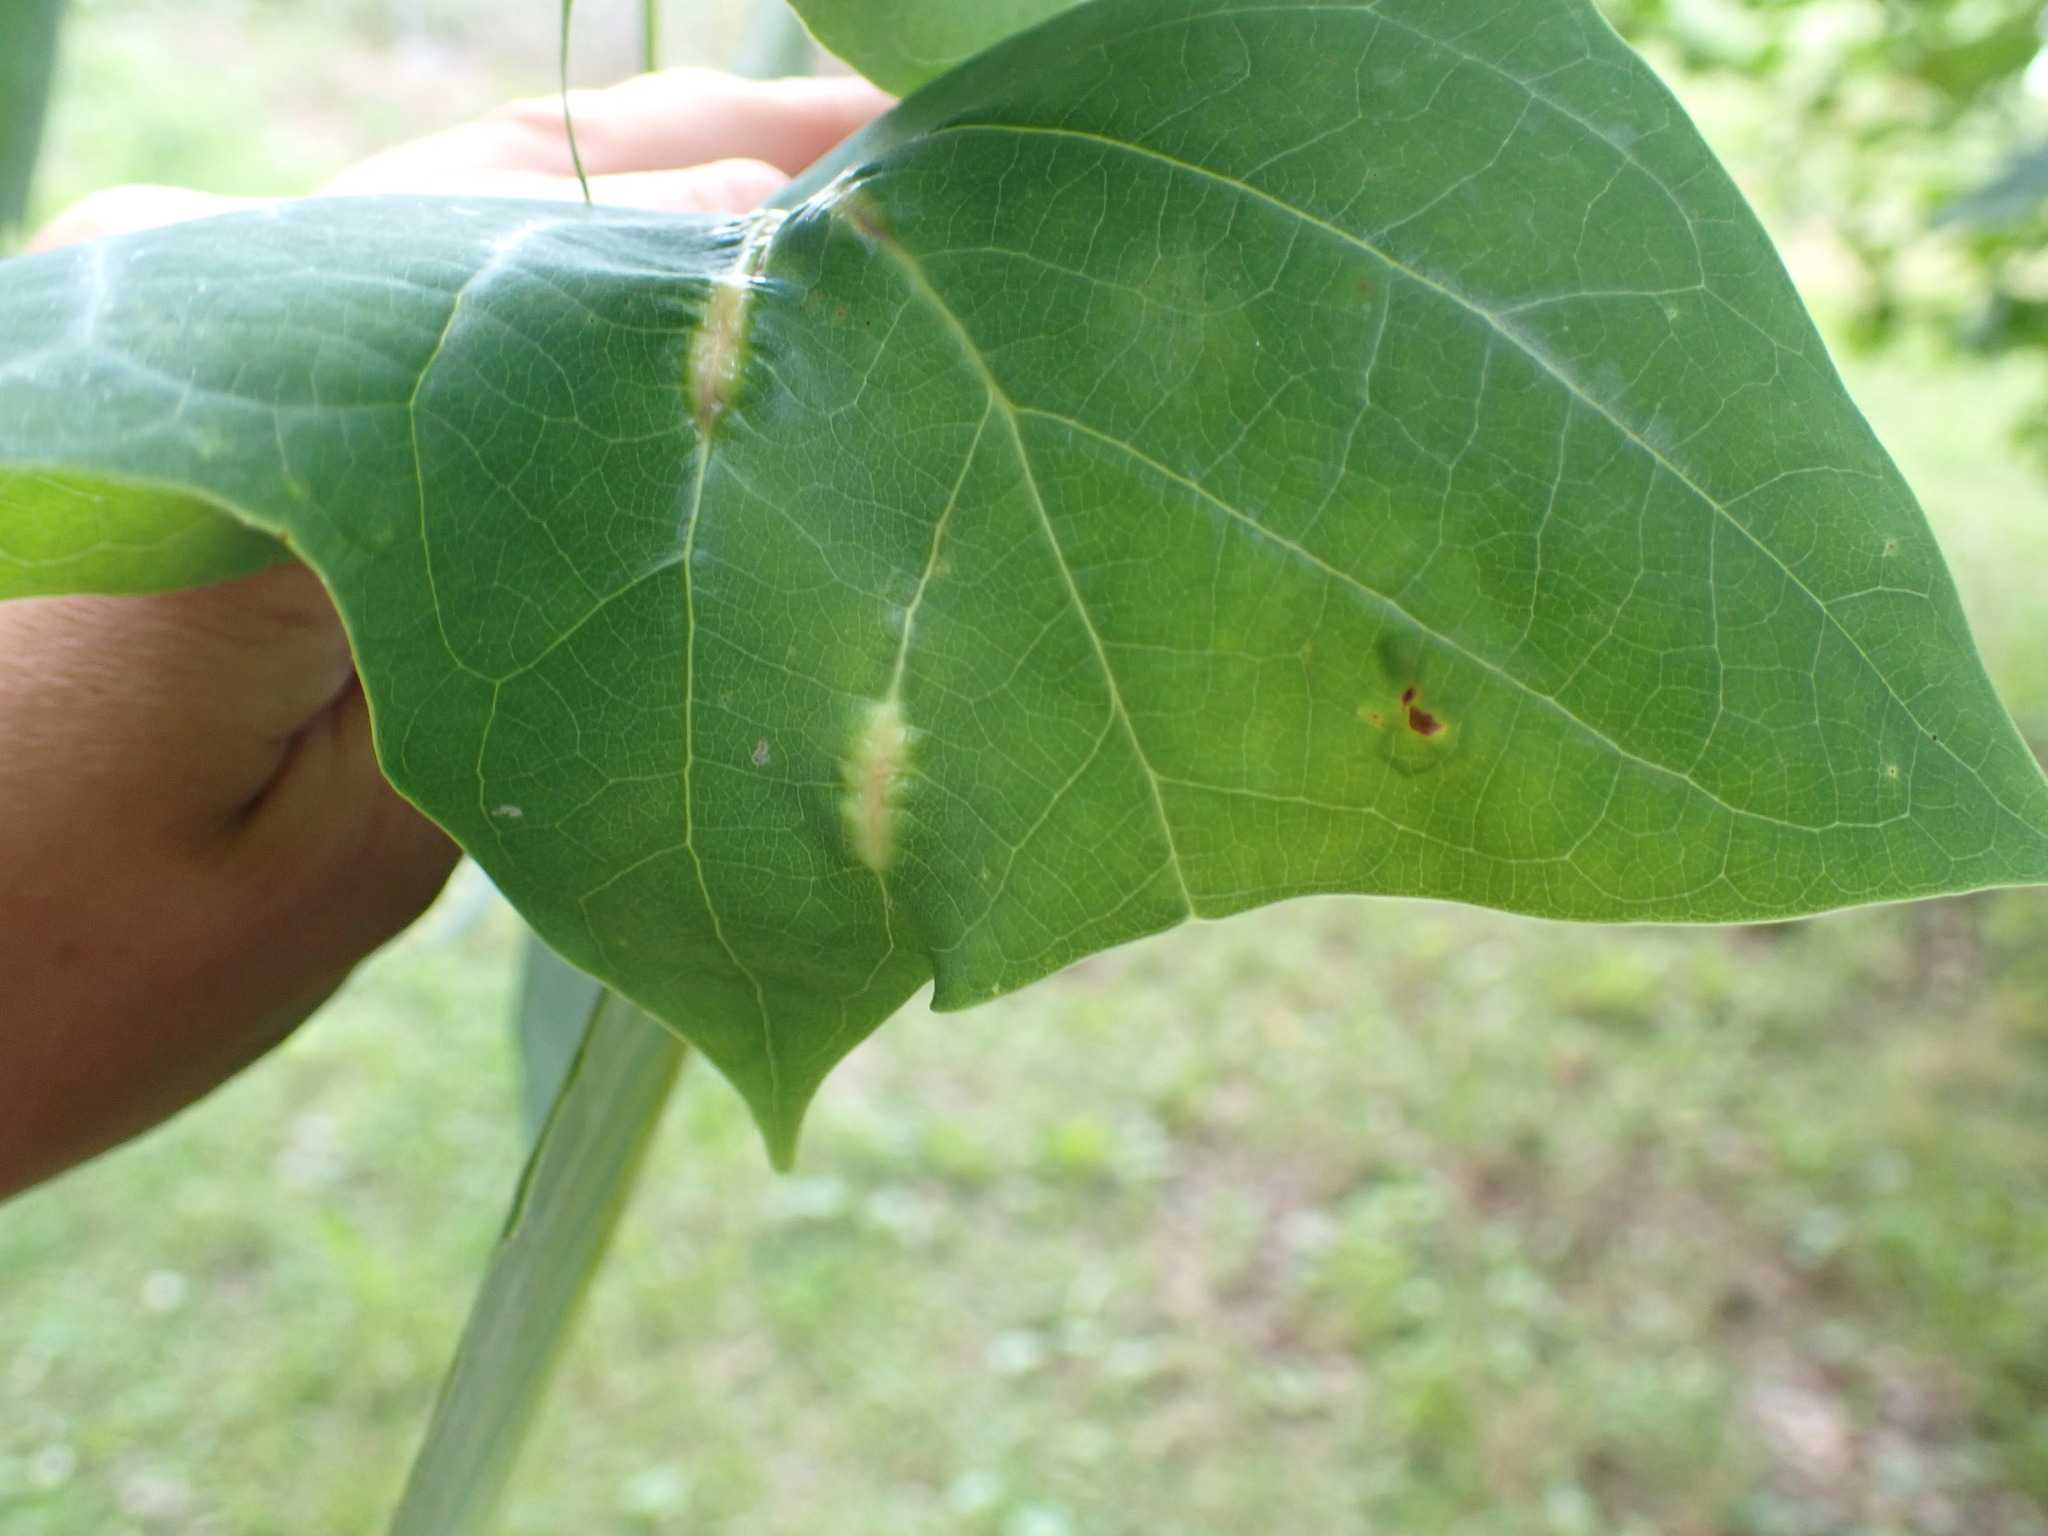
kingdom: Animalia
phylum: Arthropoda
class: Insecta
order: Diptera
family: Cecidomyiidae
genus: Resseliella
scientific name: Resseliella tulipiferae
